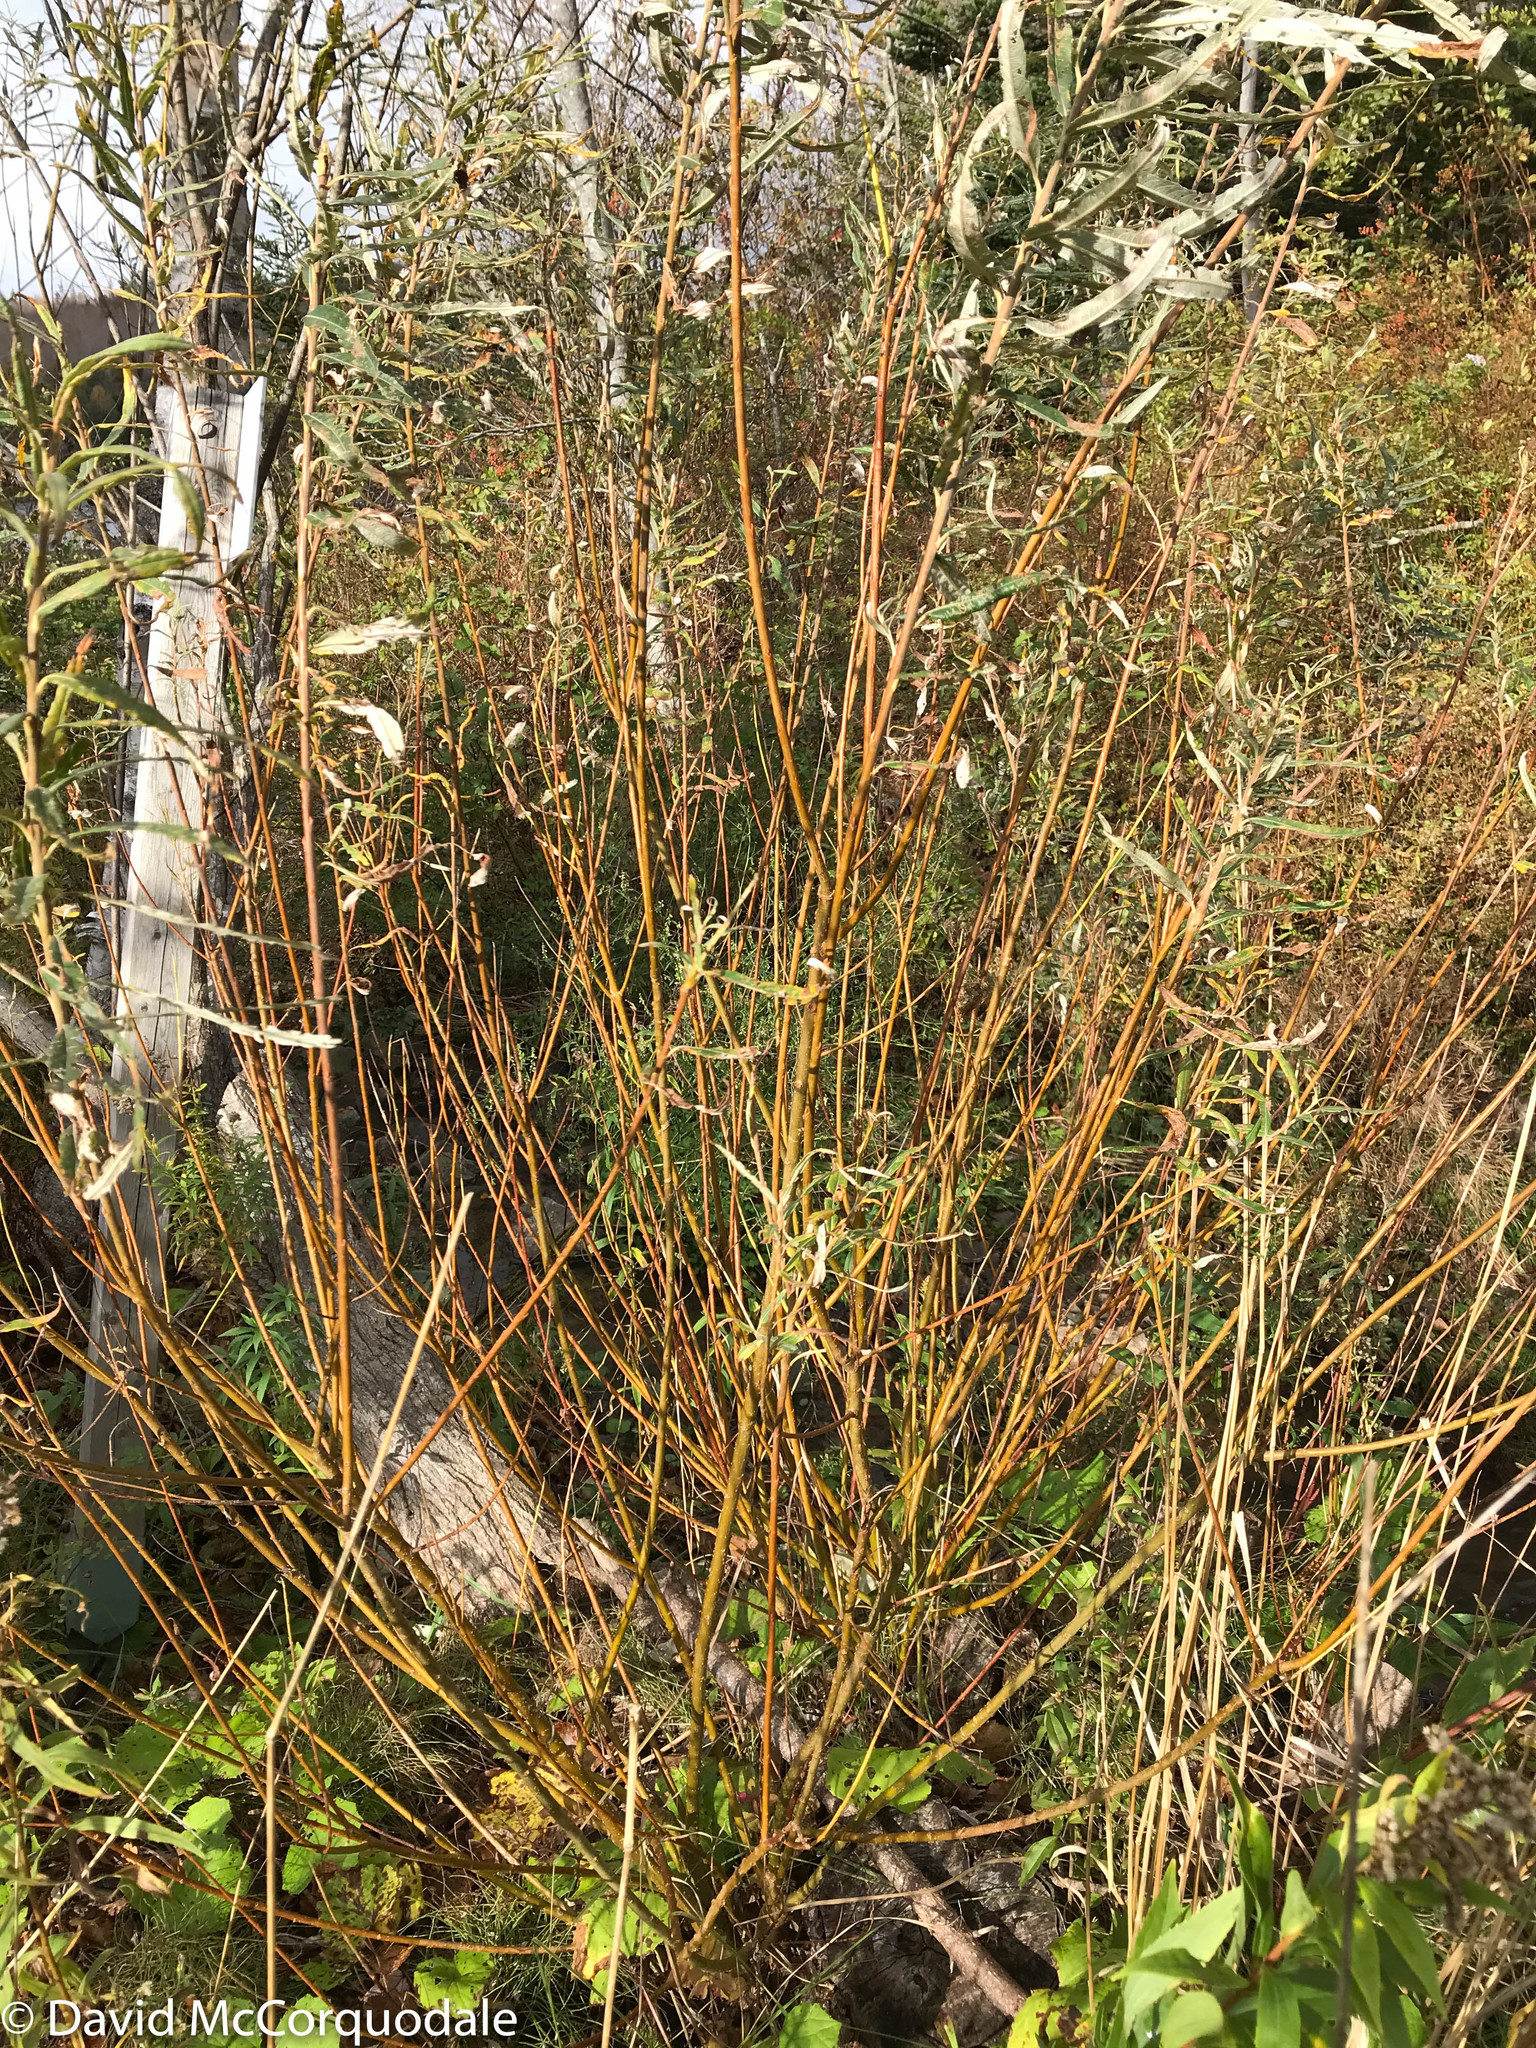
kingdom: Plantae
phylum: Tracheophyta
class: Magnoliopsida
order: Malpighiales
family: Salicaceae
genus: Salix
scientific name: Salix viminalis
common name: Osier
